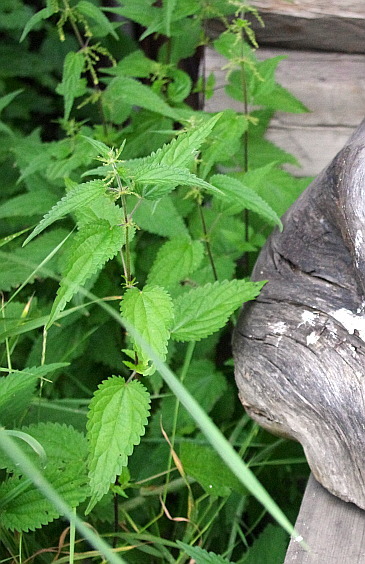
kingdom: Plantae
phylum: Tracheophyta
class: Magnoliopsida
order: Rosales
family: Urticaceae
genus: Urtica
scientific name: Urtica dioica
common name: Common nettle
